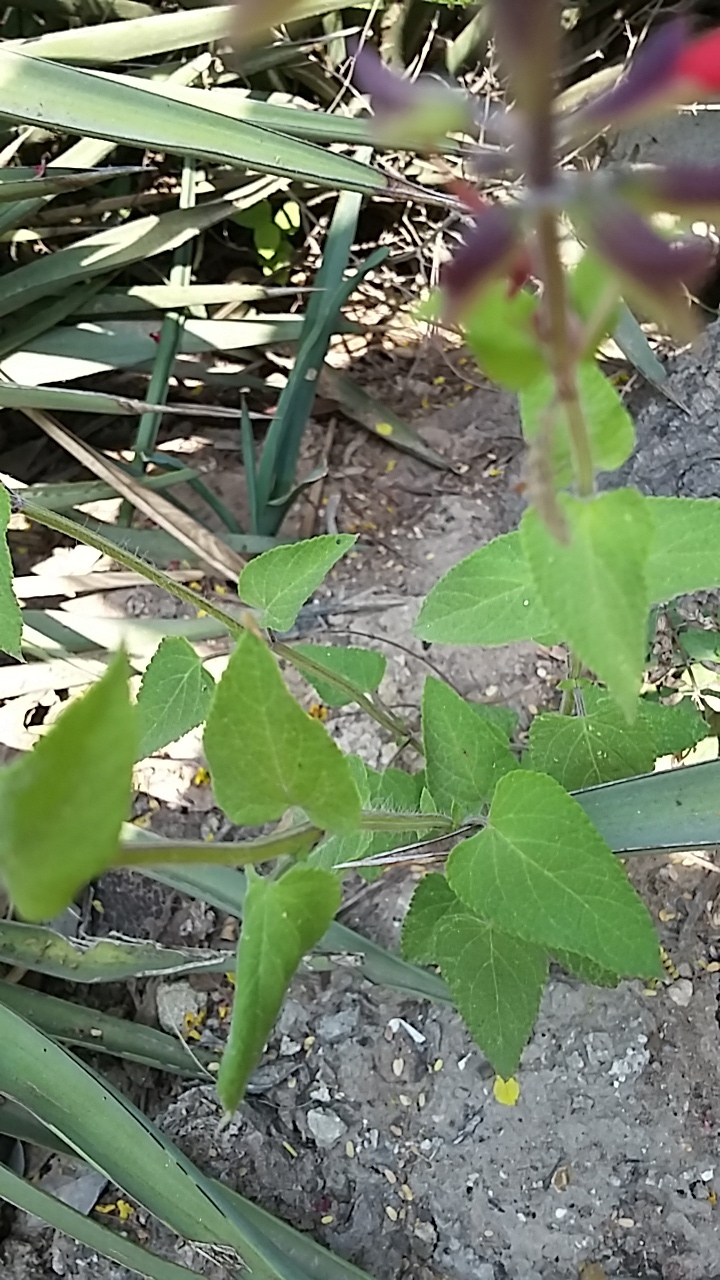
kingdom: Plantae
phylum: Tracheophyta
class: Magnoliopsida
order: Lamiales
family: Lamiaceae
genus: Salvia
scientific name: Salvia coccinea
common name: Blood sage
